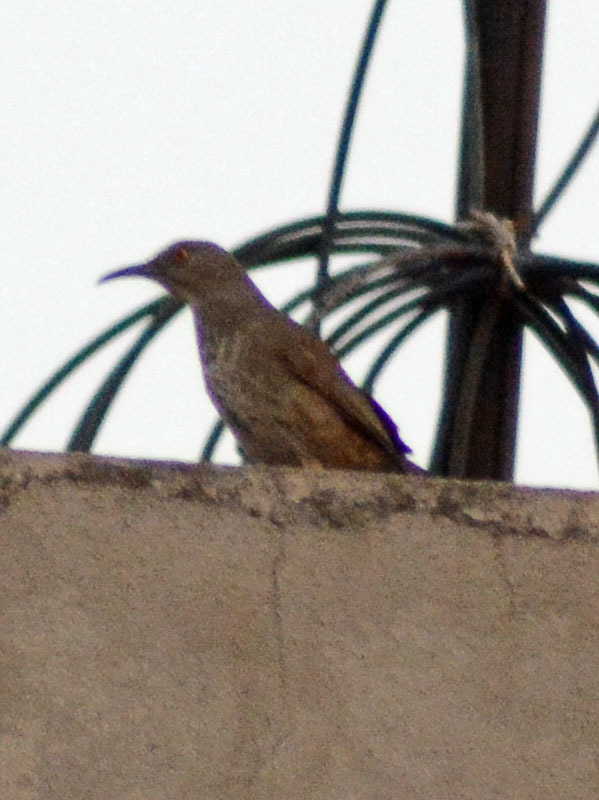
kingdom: Animalia
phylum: Chordata
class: Aves
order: Passeriformes
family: Mimidae
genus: Toxostoma
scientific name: Toxostoma curvirostre
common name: Curve-billed thrasher
